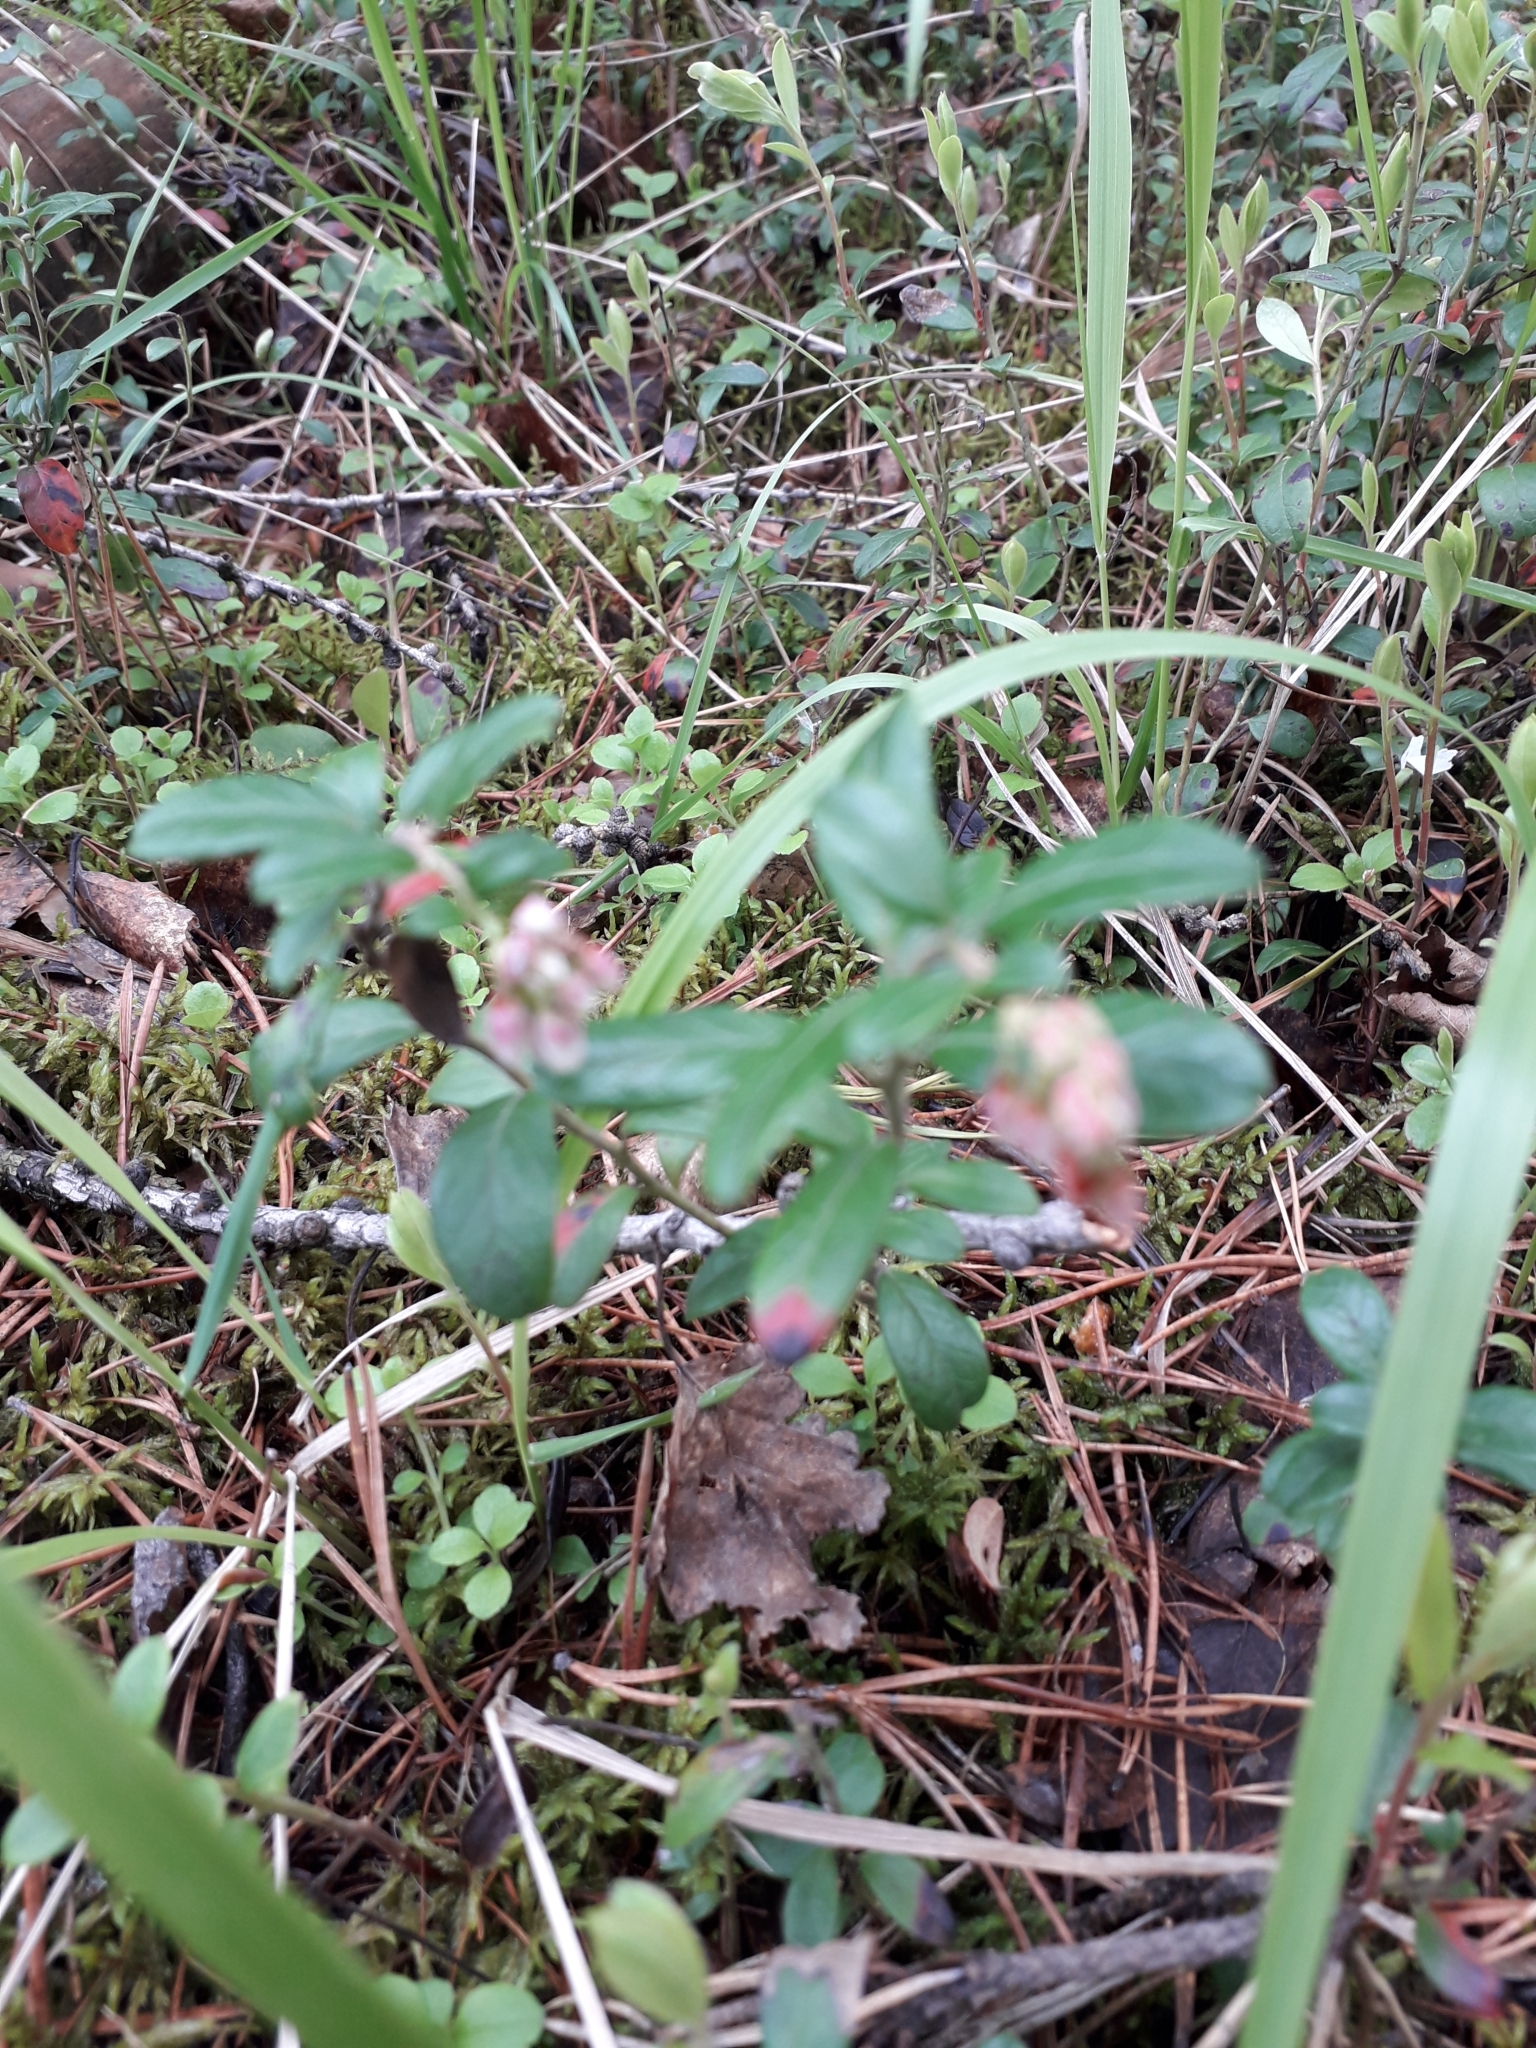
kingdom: Plantae
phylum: Tracheophyta
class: Magnoliopsida
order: Ericales
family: Ericaceae
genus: Vaccinium
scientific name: Vaccinium vitis-idaea
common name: Cowberry
